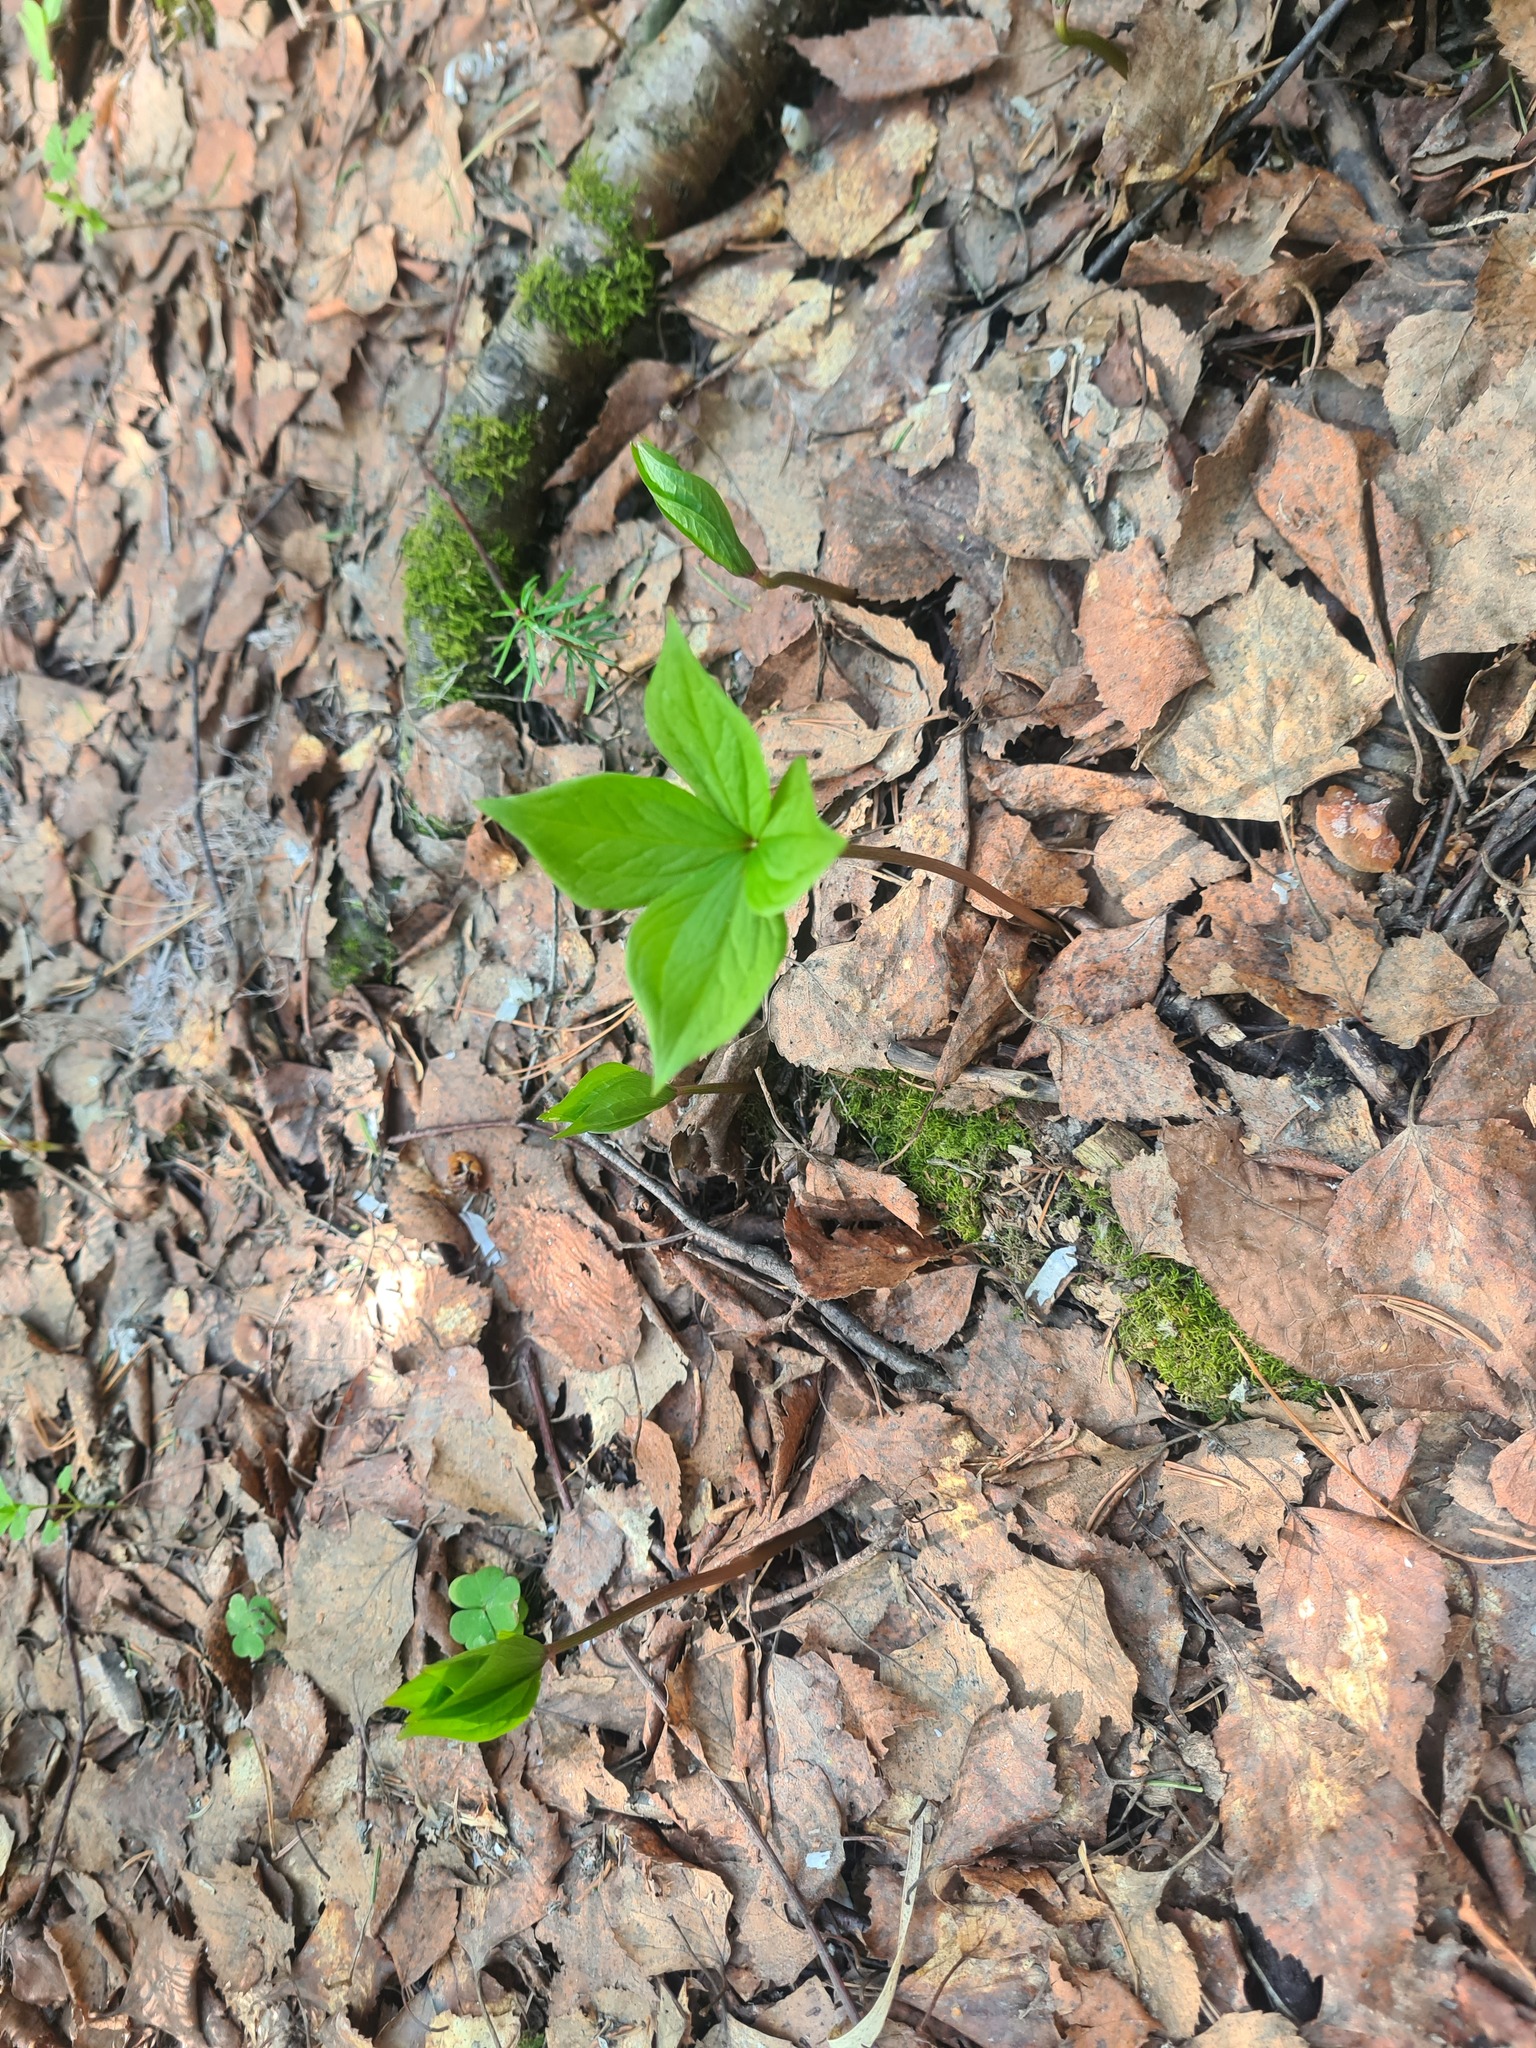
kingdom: Plantae
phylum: Tracheophyta
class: Liliopsida
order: Liliales
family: Melanthiaceae
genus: Paris
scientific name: Paris quadrifolia
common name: Herb-paris
